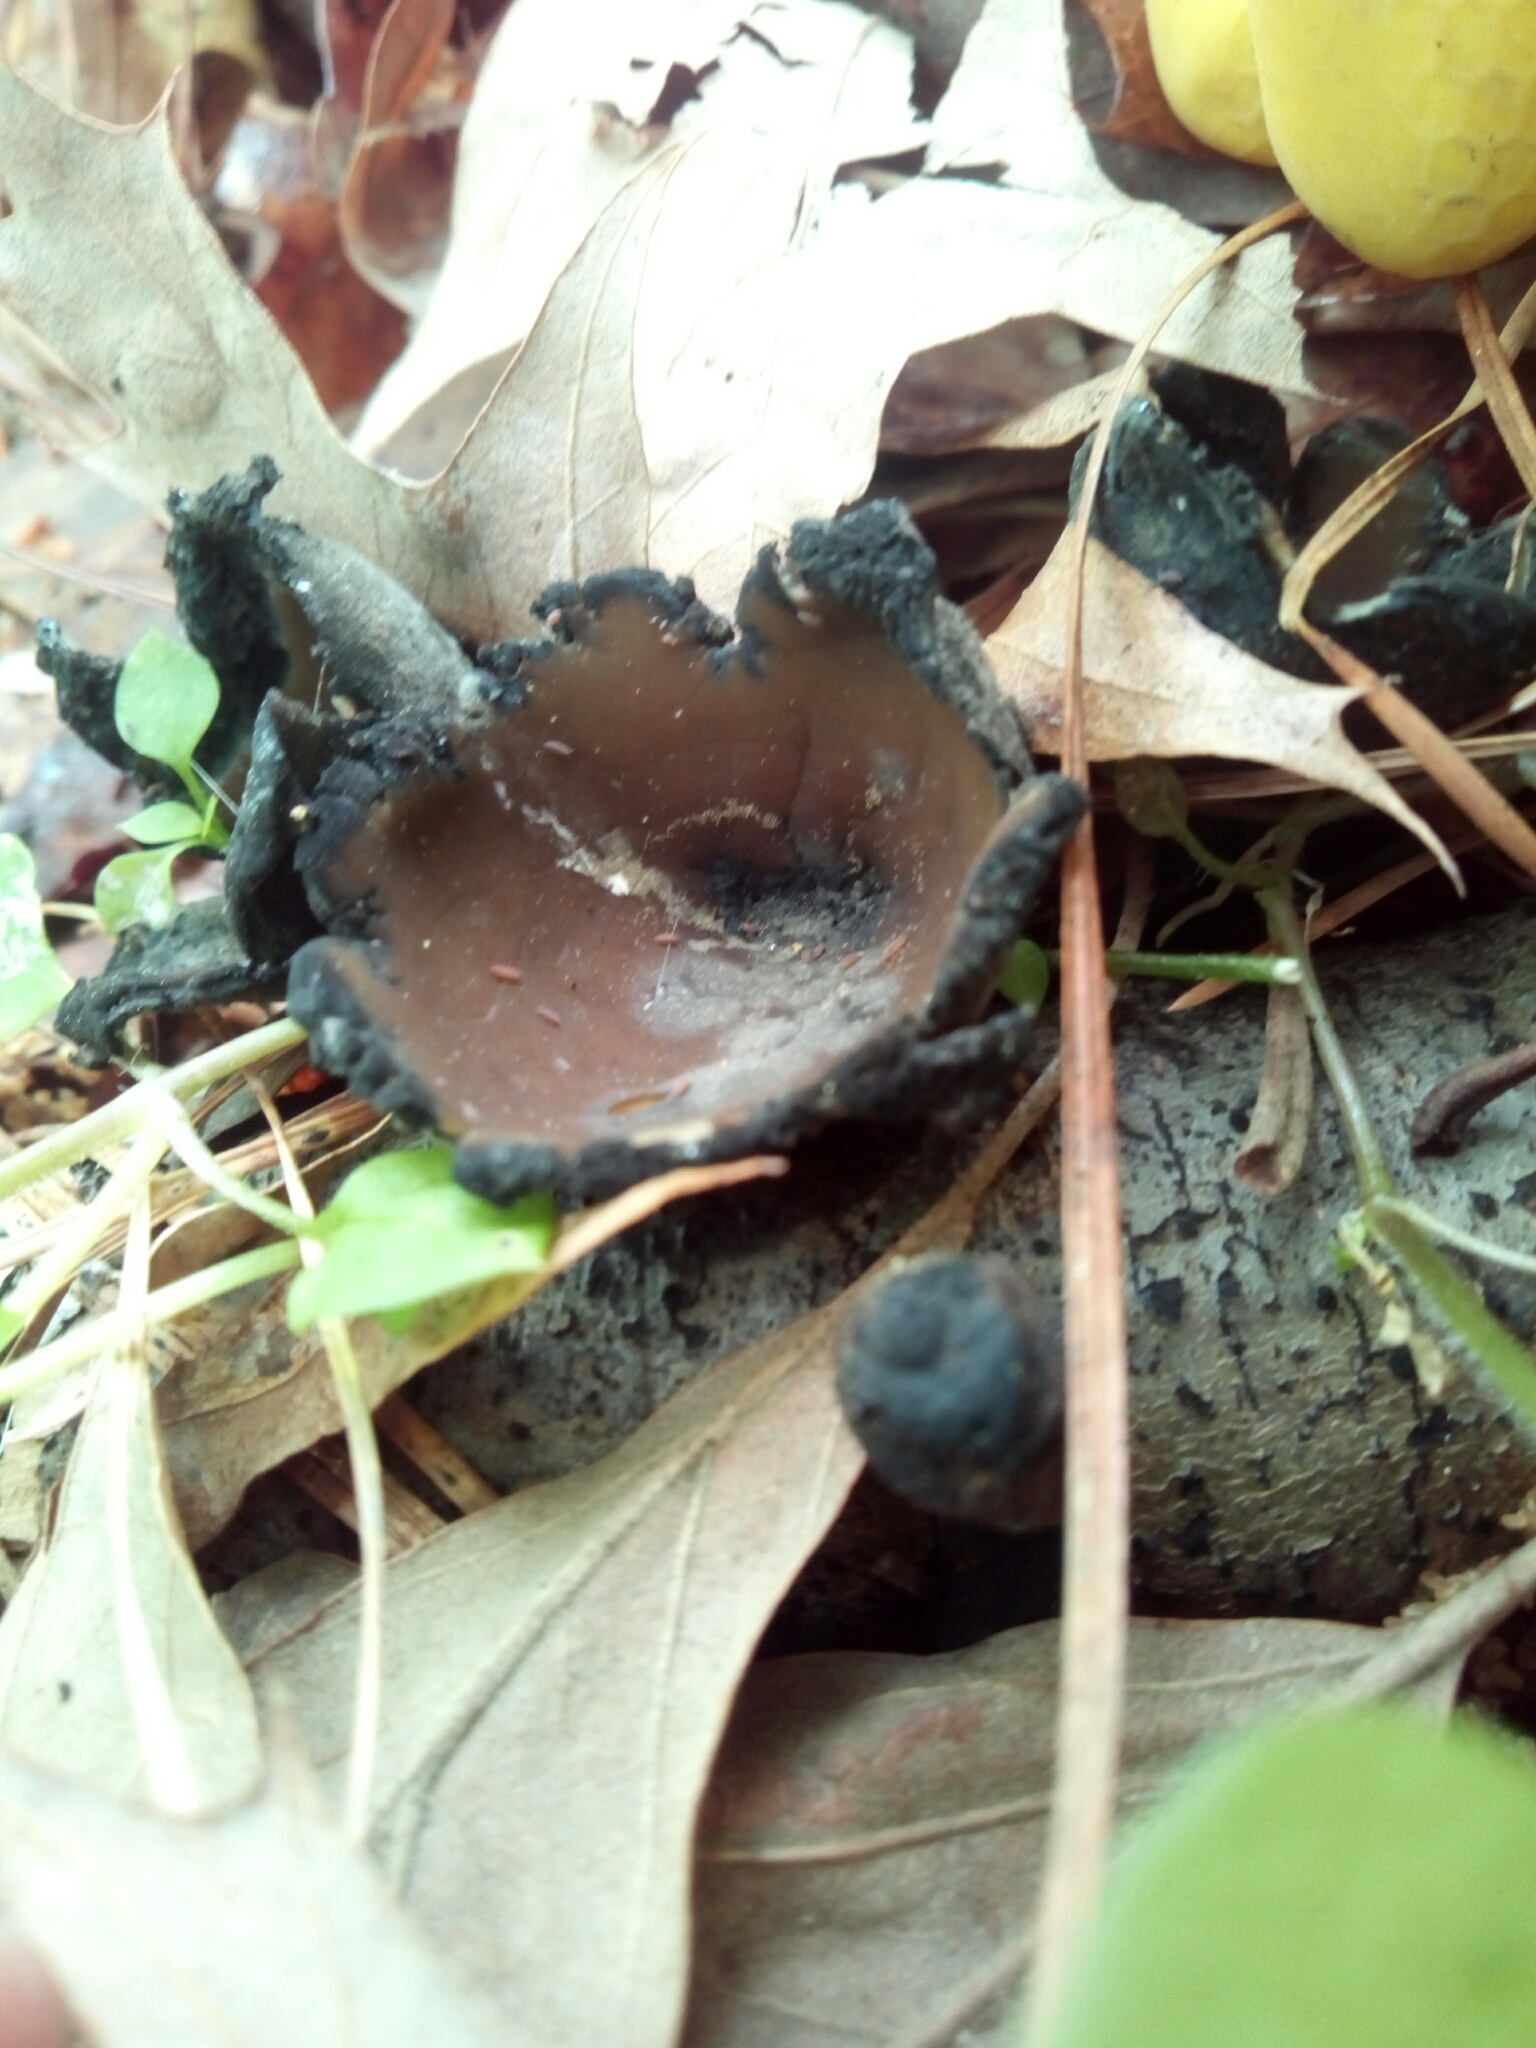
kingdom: Fungi
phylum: Ascomycota
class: Pezizomycetes
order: Pezizales
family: Sarcosomataceae
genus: Urnula
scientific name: Urnula craterium
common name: Devil's urn
